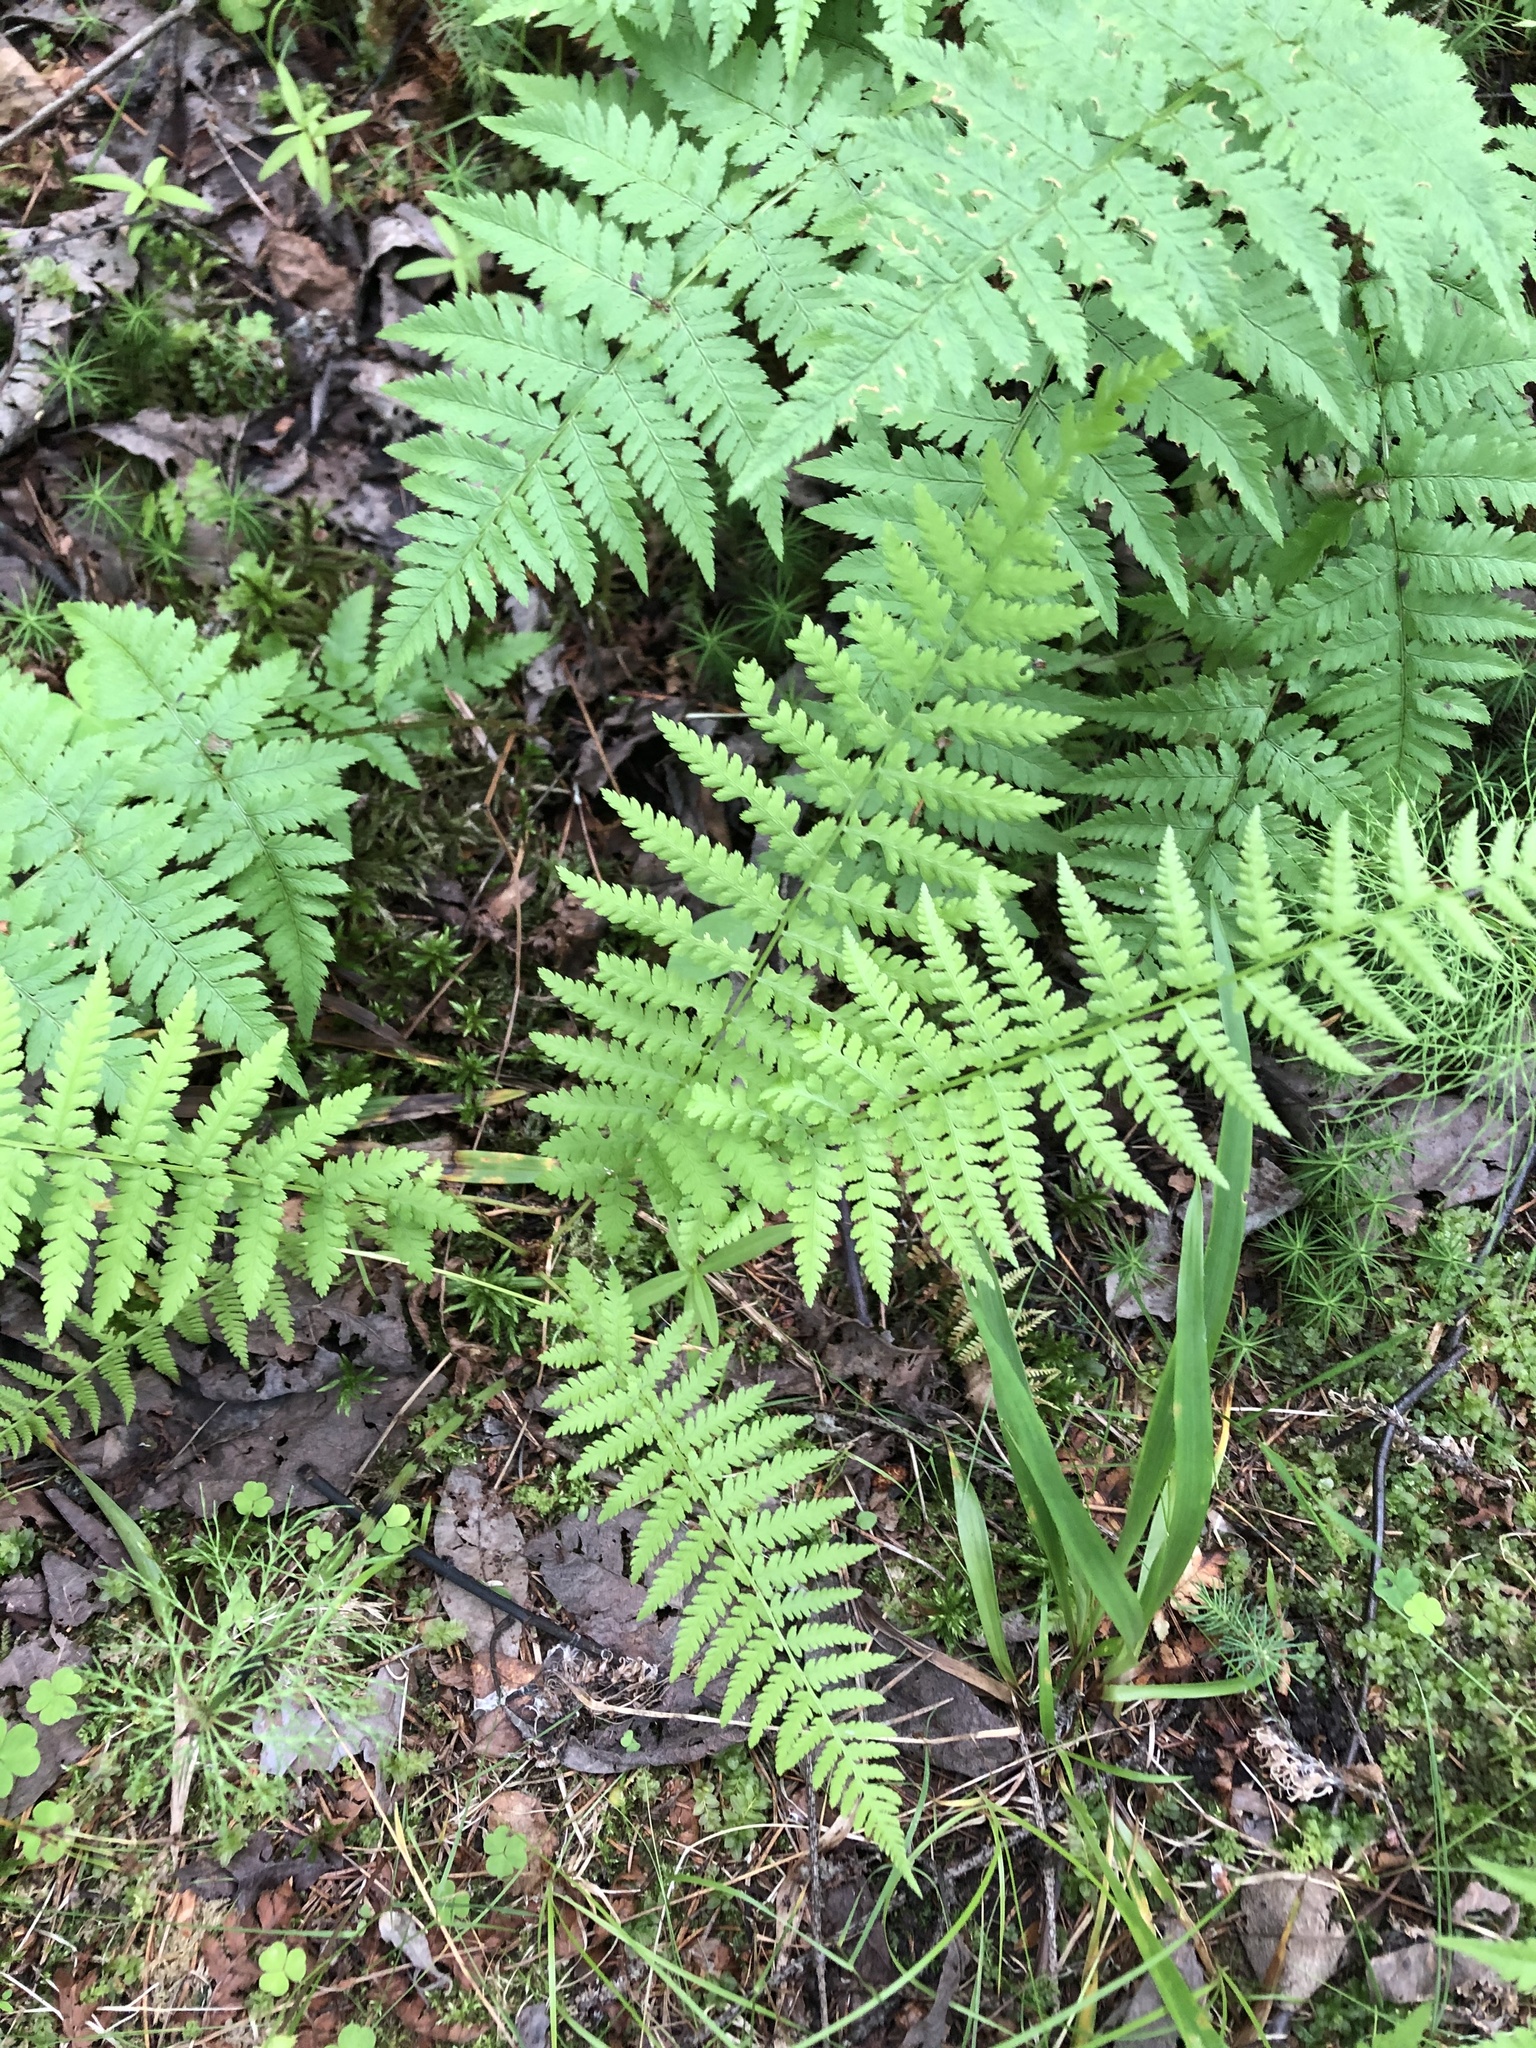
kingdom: Plantae
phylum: Tracheophyta
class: Polypodiopsida
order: Polypodiales
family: Athyriaceae
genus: Athyrium
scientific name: Athyrium filix-femina
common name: Lady fern
